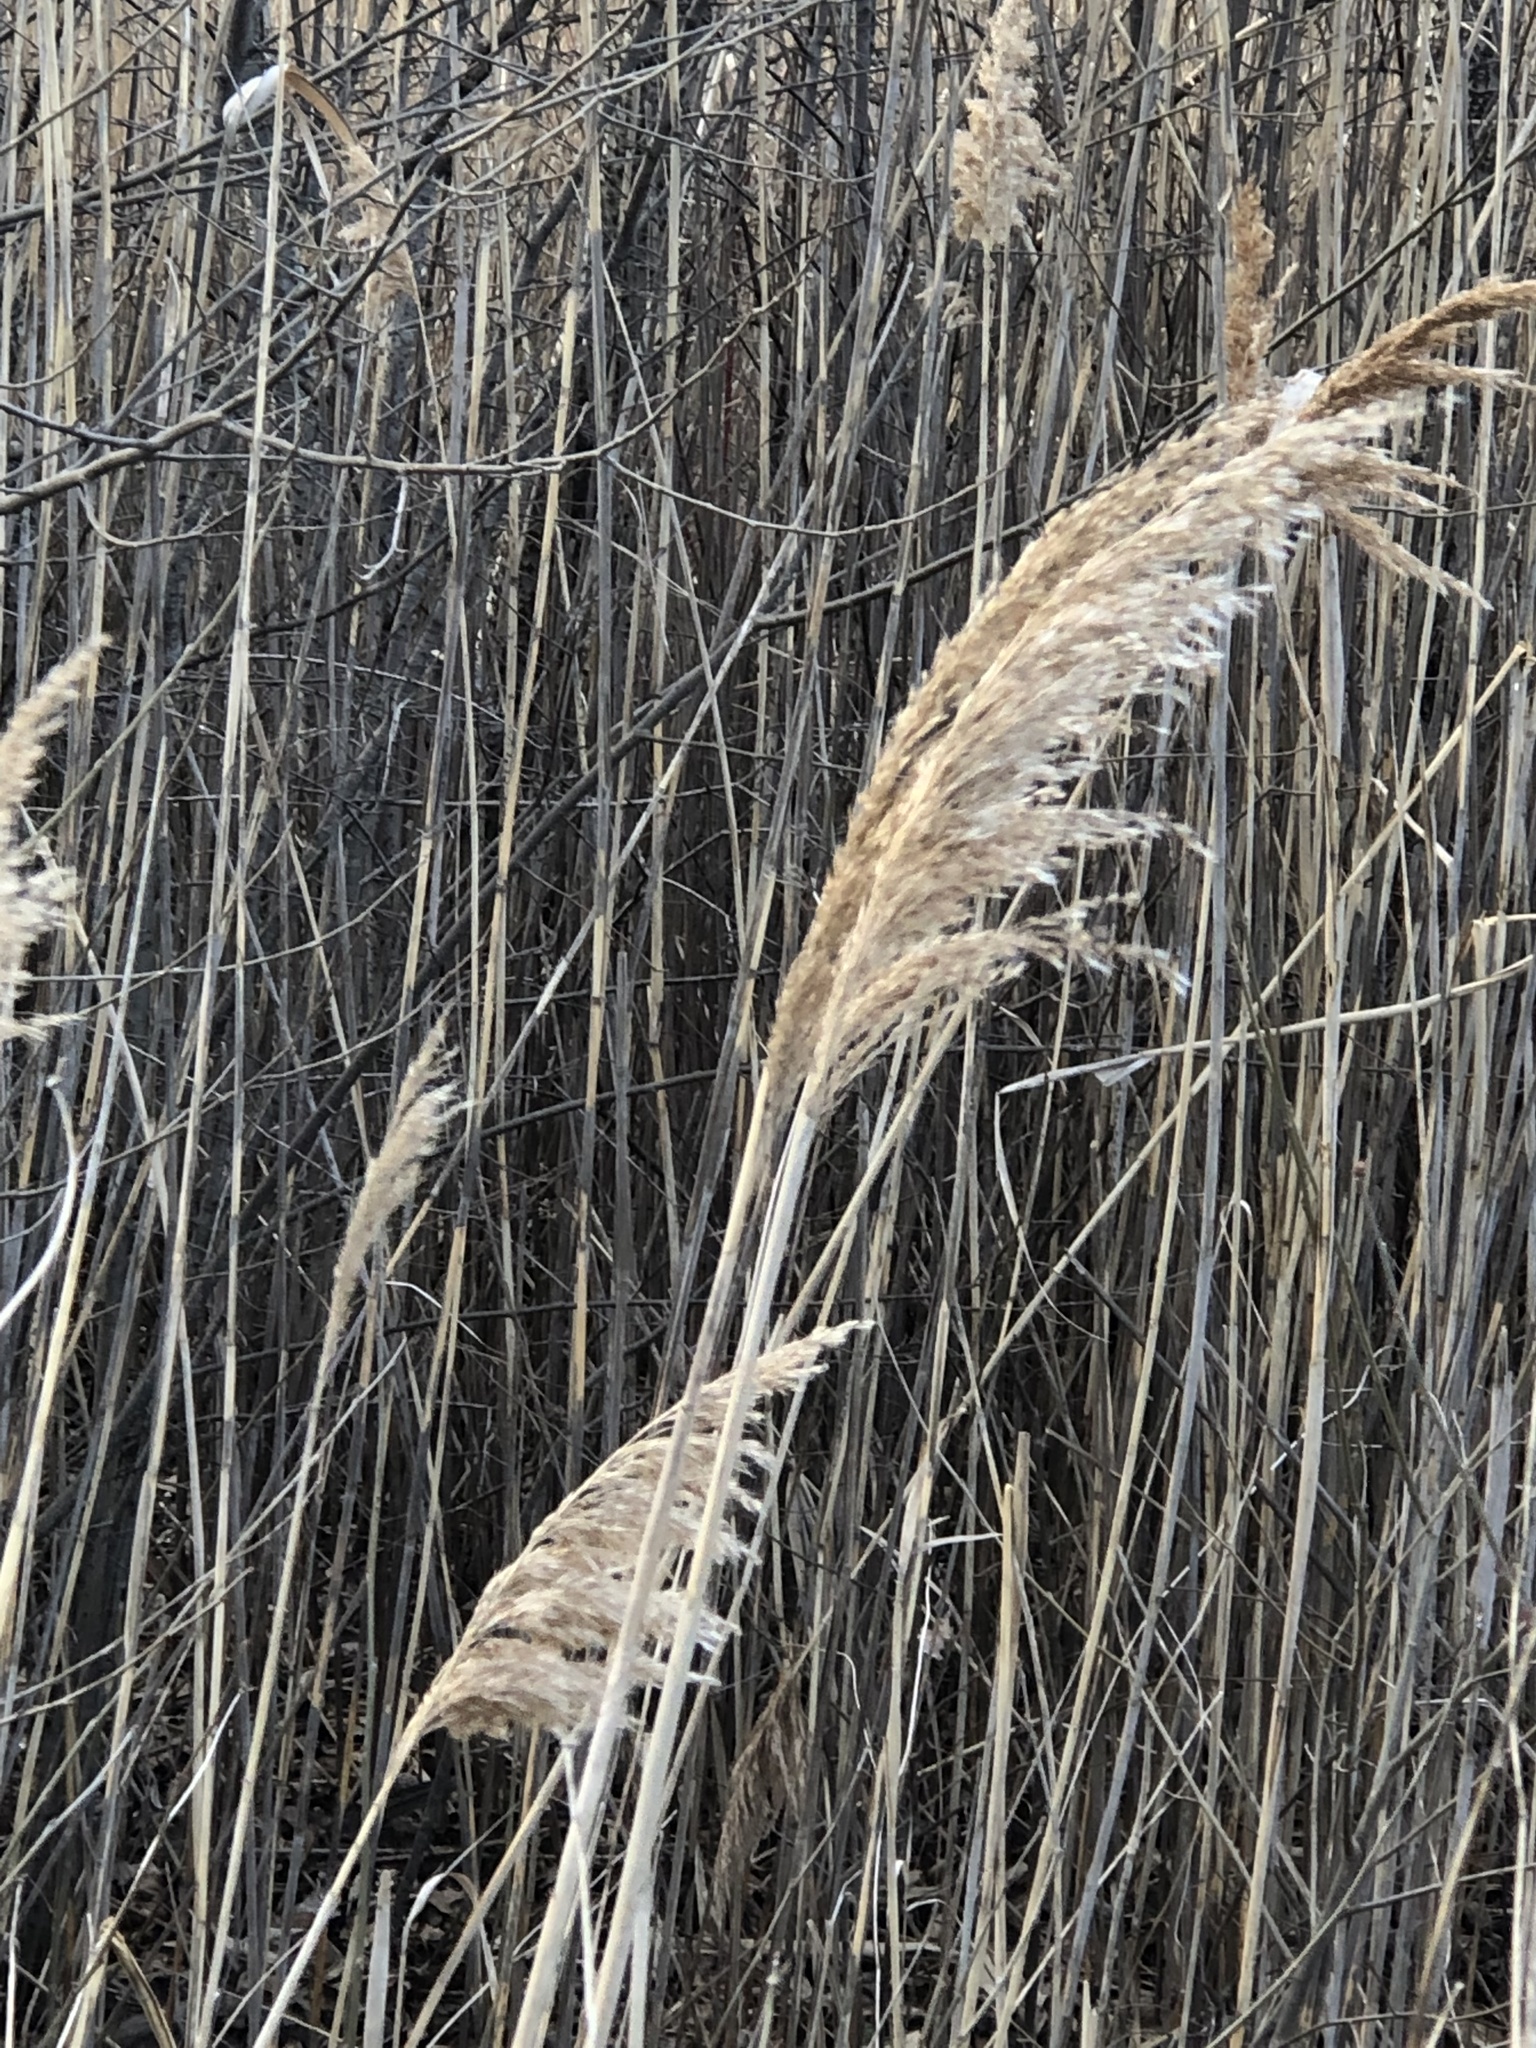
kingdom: Plantae
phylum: Tracheophyta
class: Liliopsida
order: Poales
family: Poaceae
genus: Phragmites
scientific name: Phragmites australis
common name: Common reed
